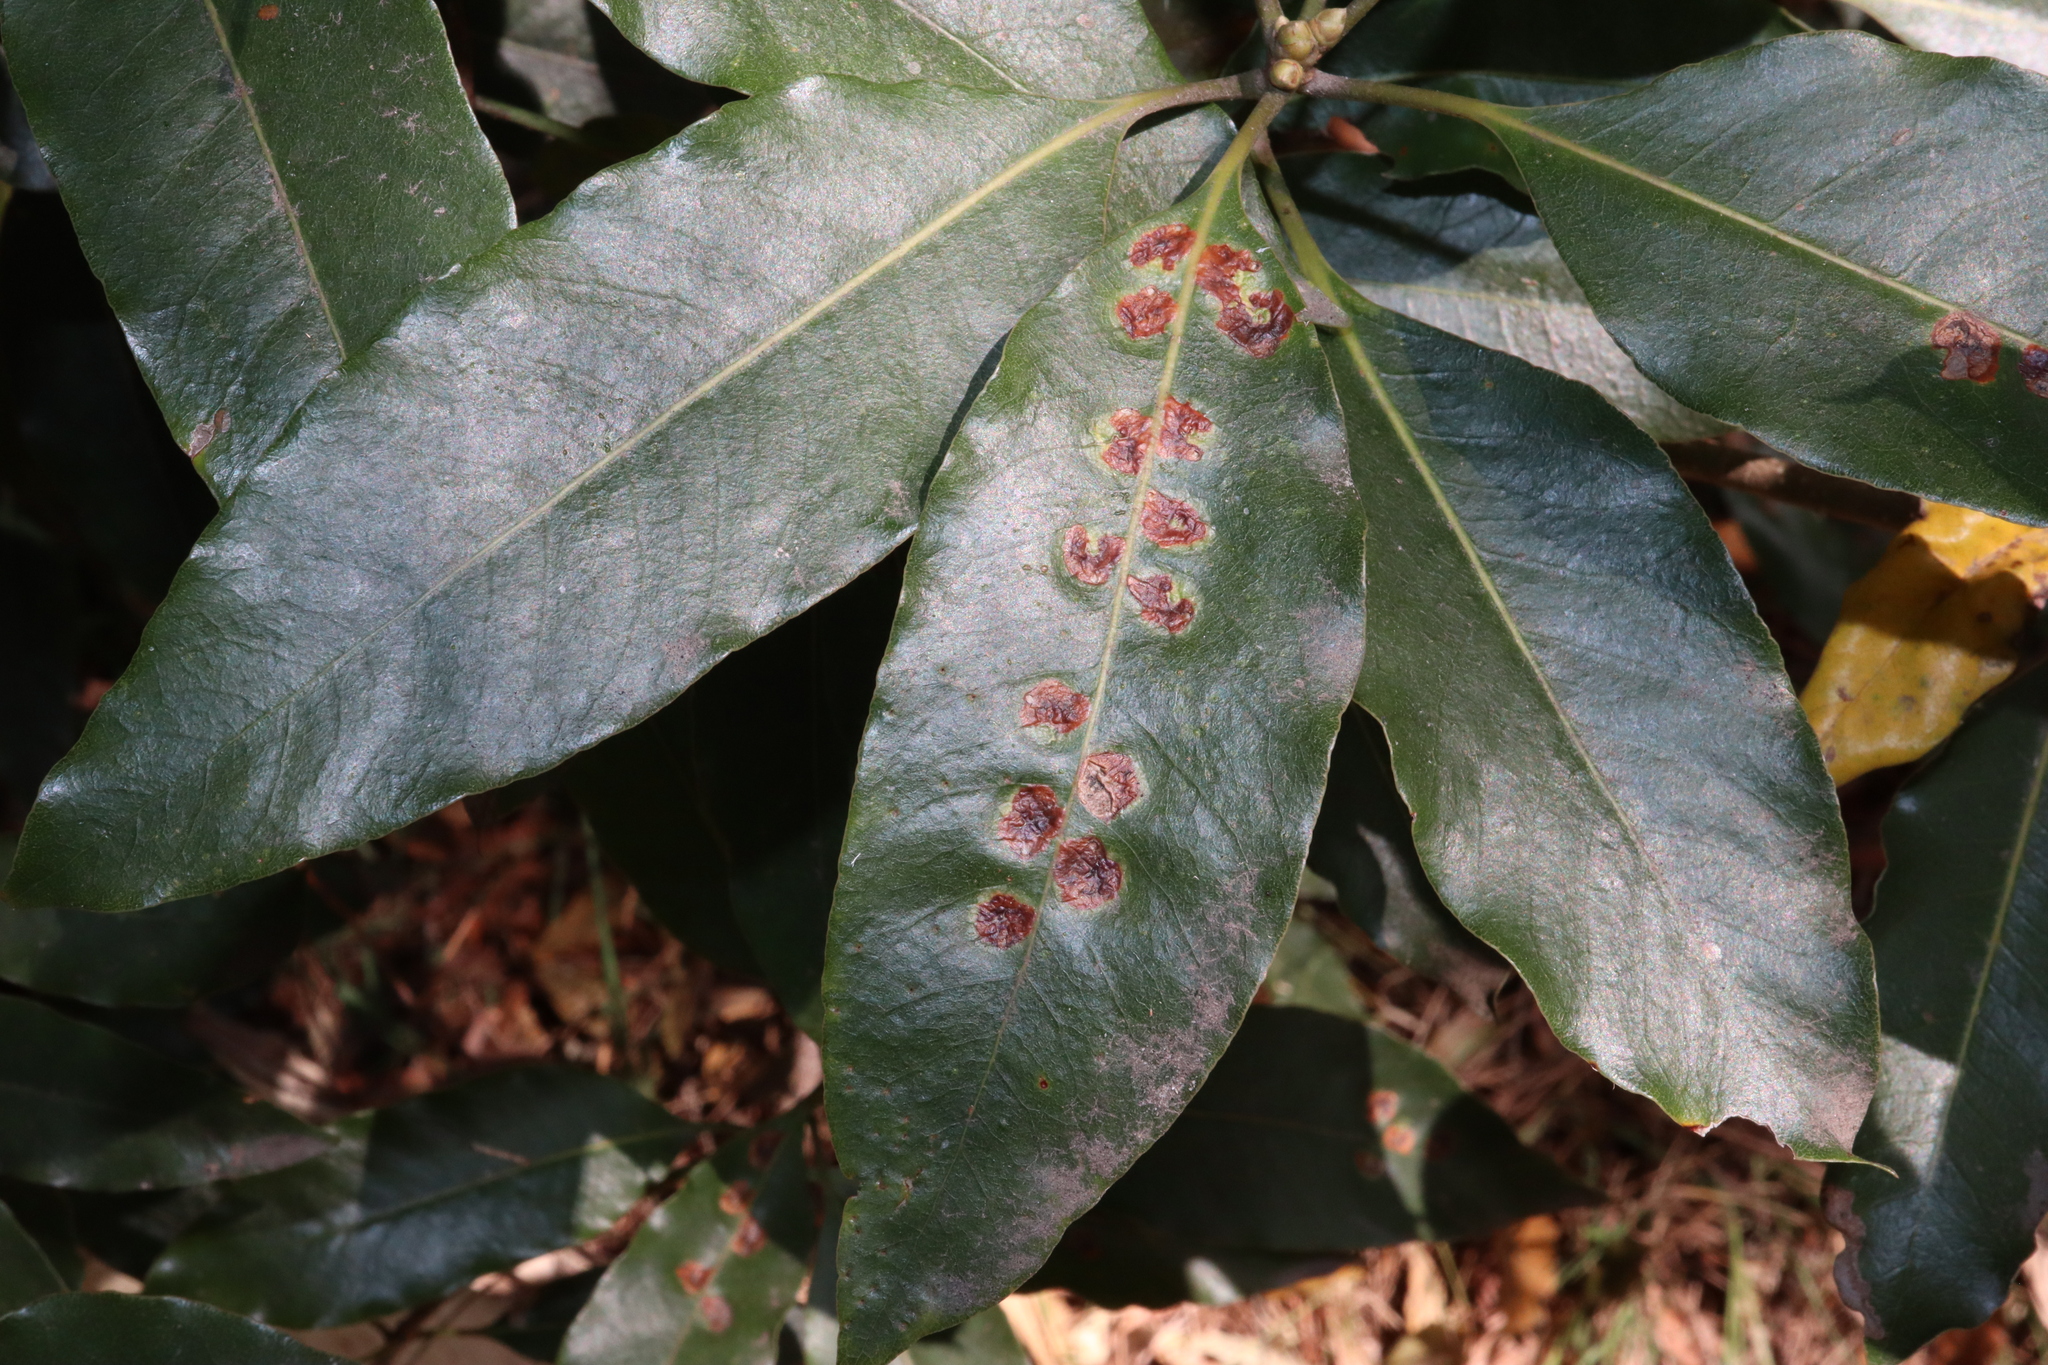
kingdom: Animalia
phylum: Arthropoda
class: Insecta
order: Diptera
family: Agromyzidae
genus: Phytoliriomyza
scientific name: Phytoliriomyza pittosporophylli
